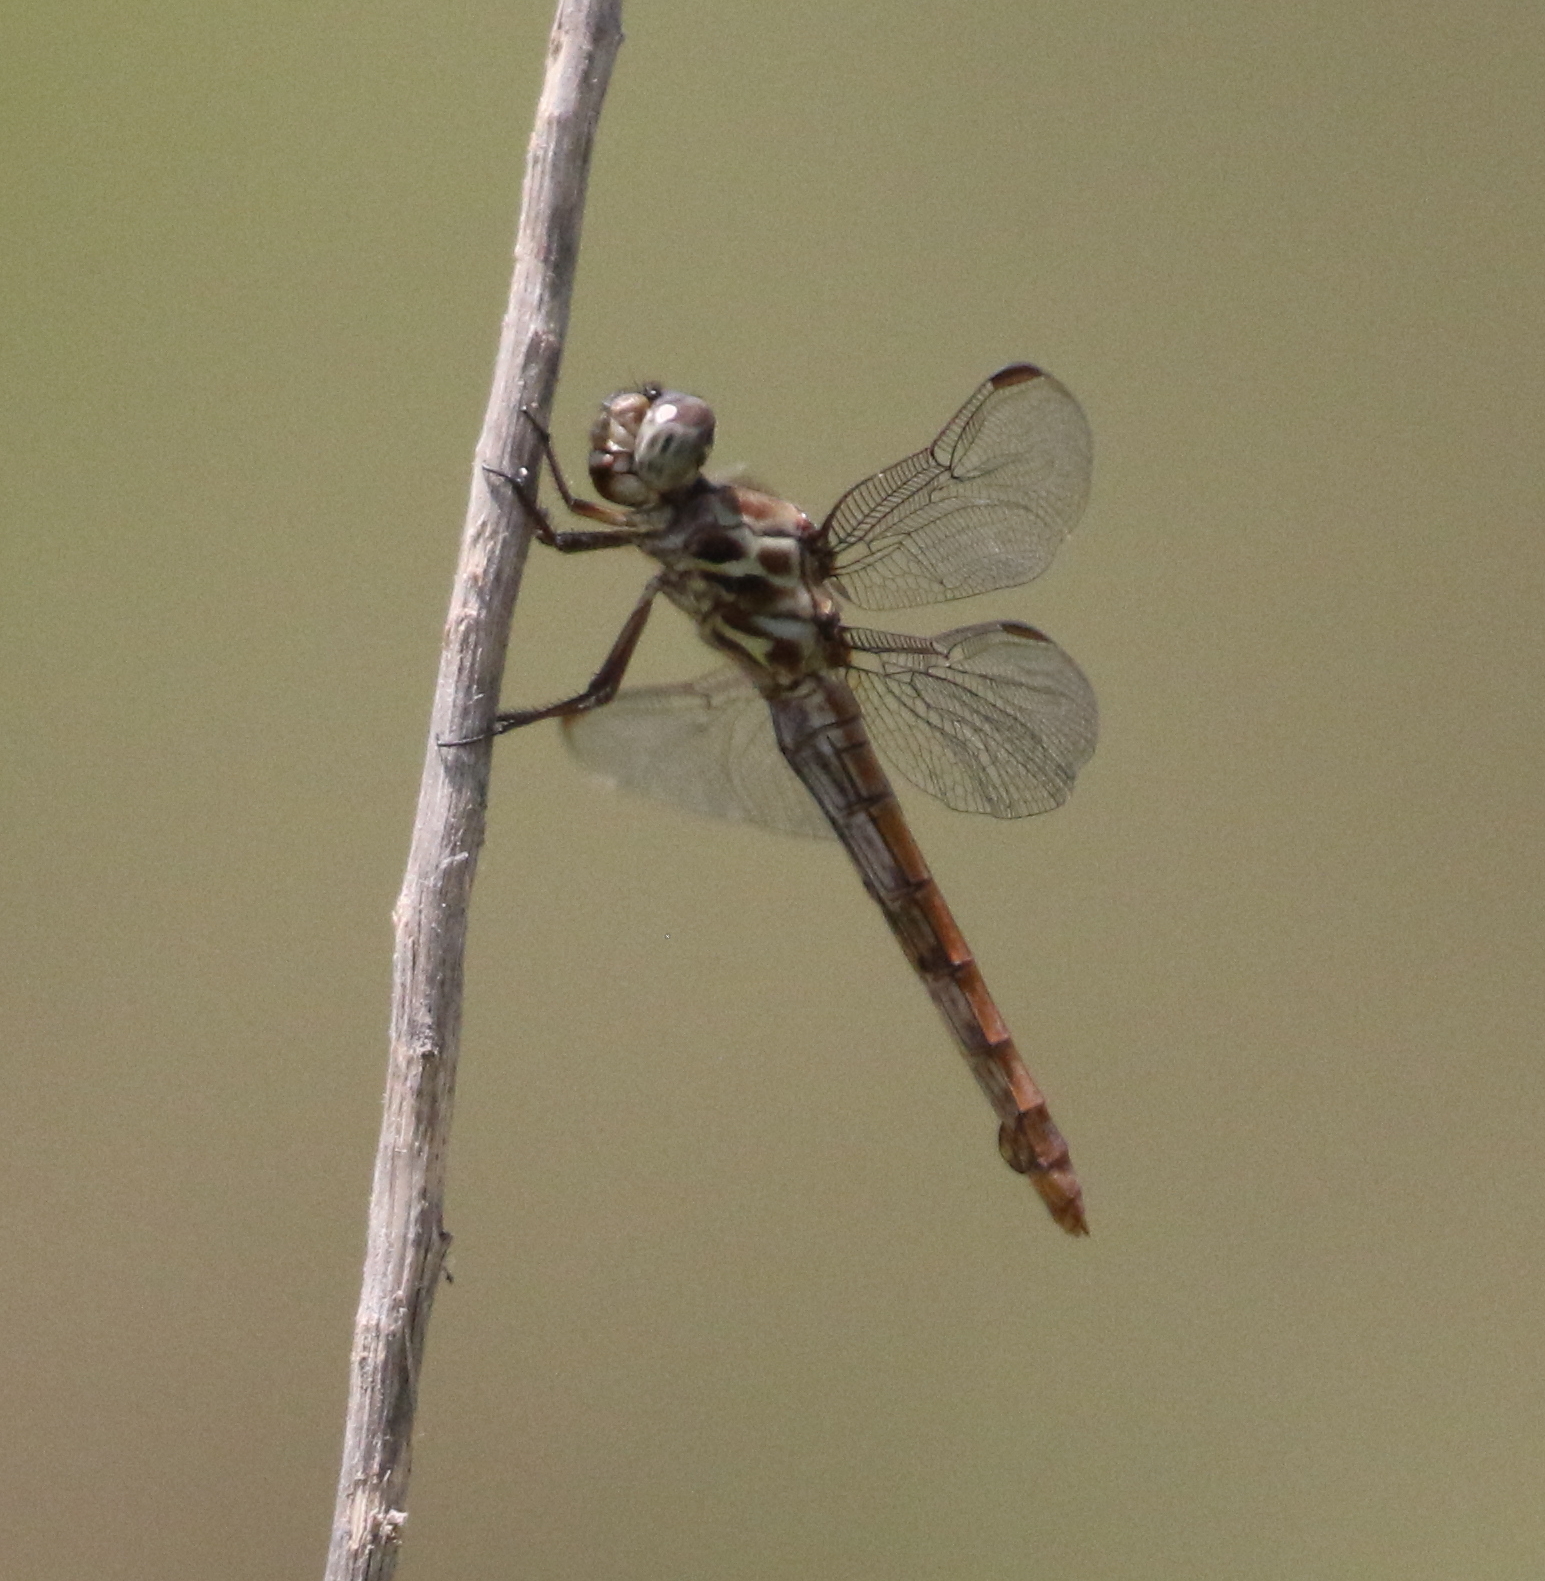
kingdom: Animalia
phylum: Arthropoda
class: Insecta
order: Odonata
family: Libellulidae
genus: Orthemis
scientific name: Orthemis ferruginea
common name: Roseate skimmer
